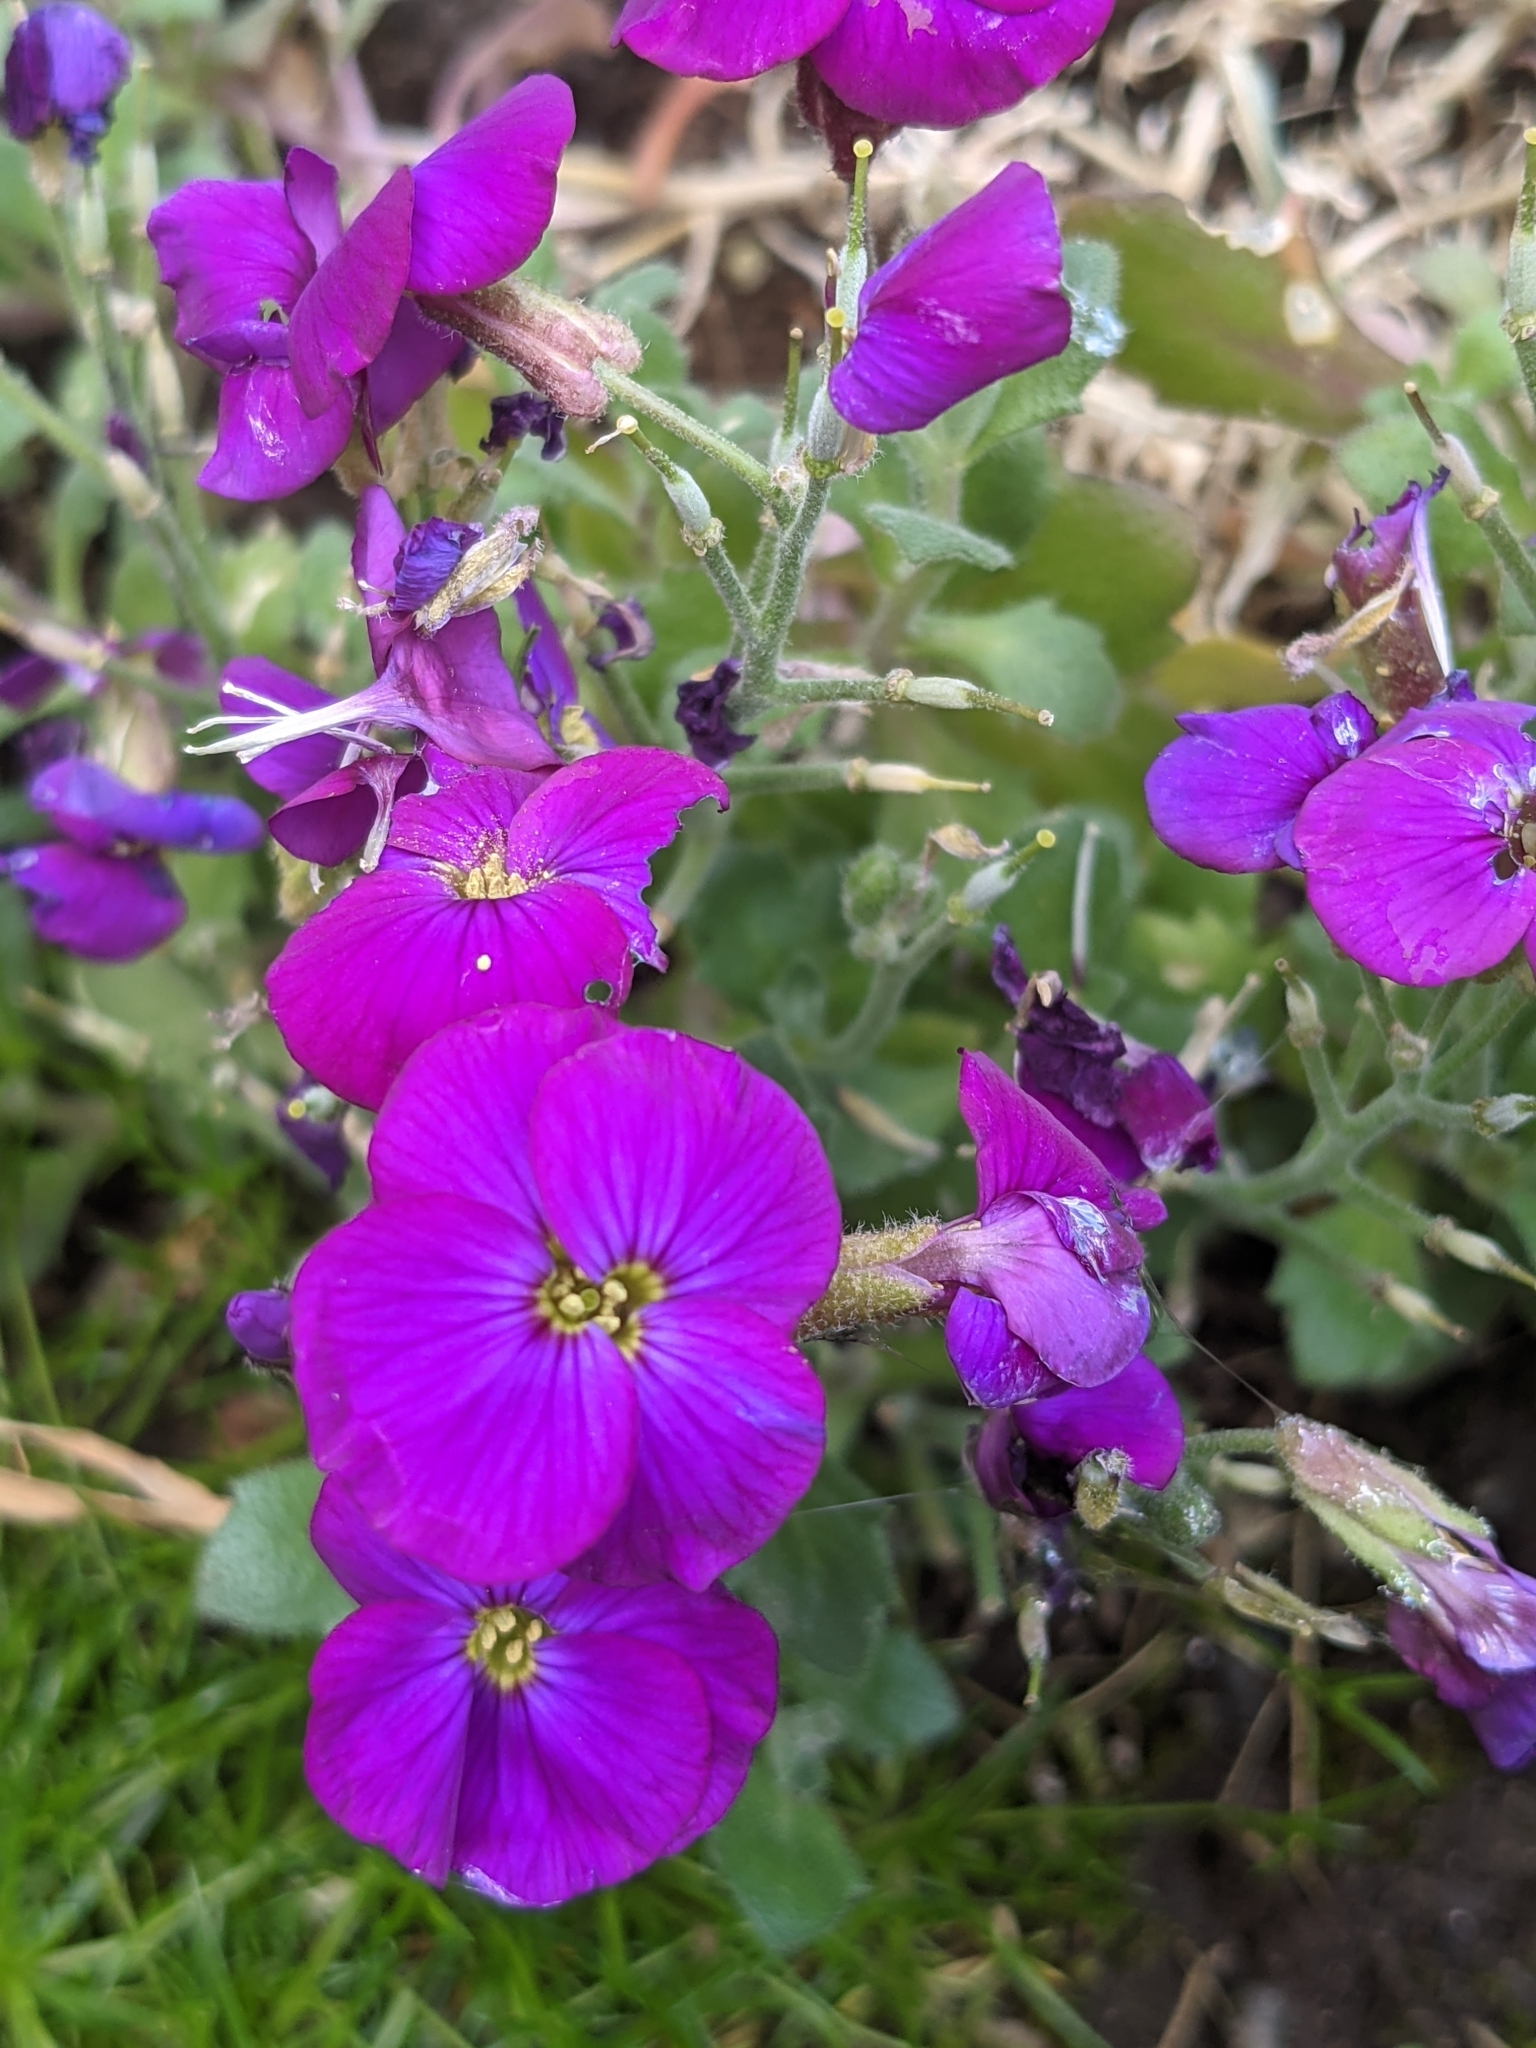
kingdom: Plantae
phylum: Tracheophyta
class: Magnoliopsida
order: Brassicales
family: Brassicaceae
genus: Aubrieta
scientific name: Aubrieta deltoidea
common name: Aubretia
